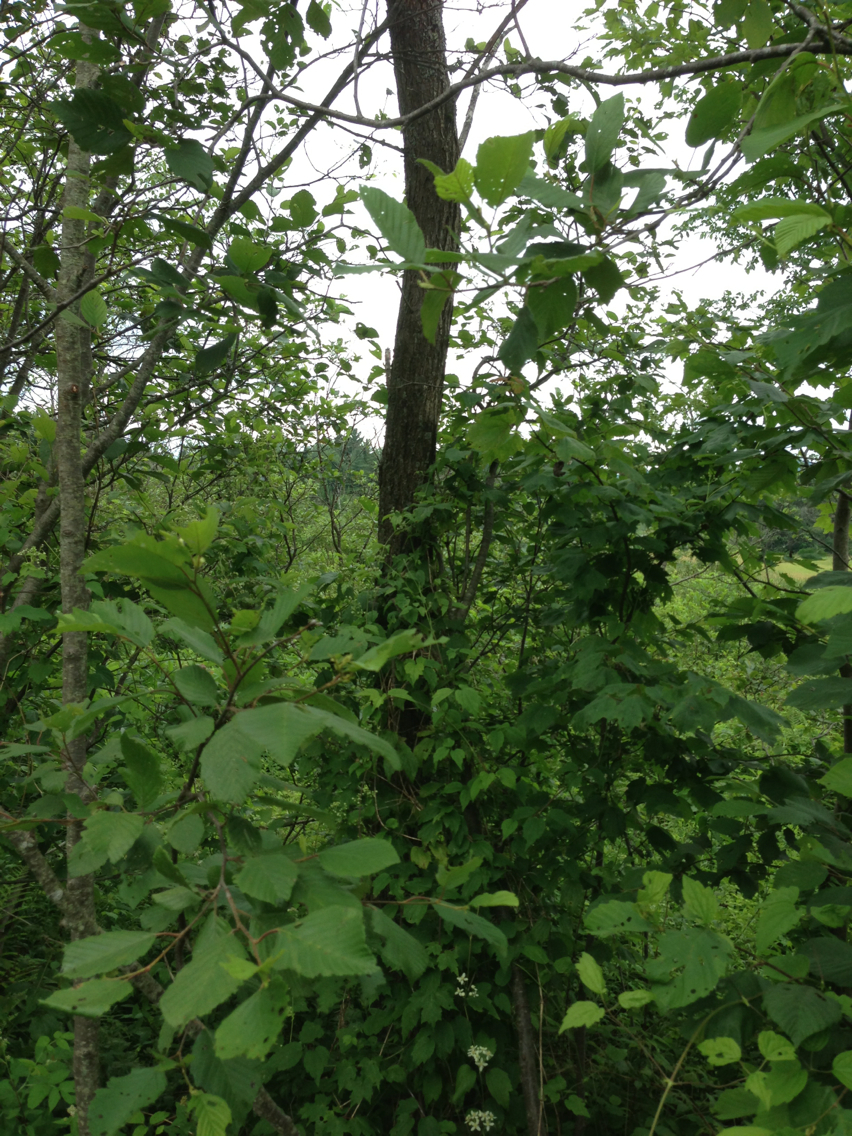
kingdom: Plantae
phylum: Tracheophyta
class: Magnoliopsida
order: Rosales
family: Ulmaceae
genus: Ulmus
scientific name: Ulmus americana
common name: American elm
